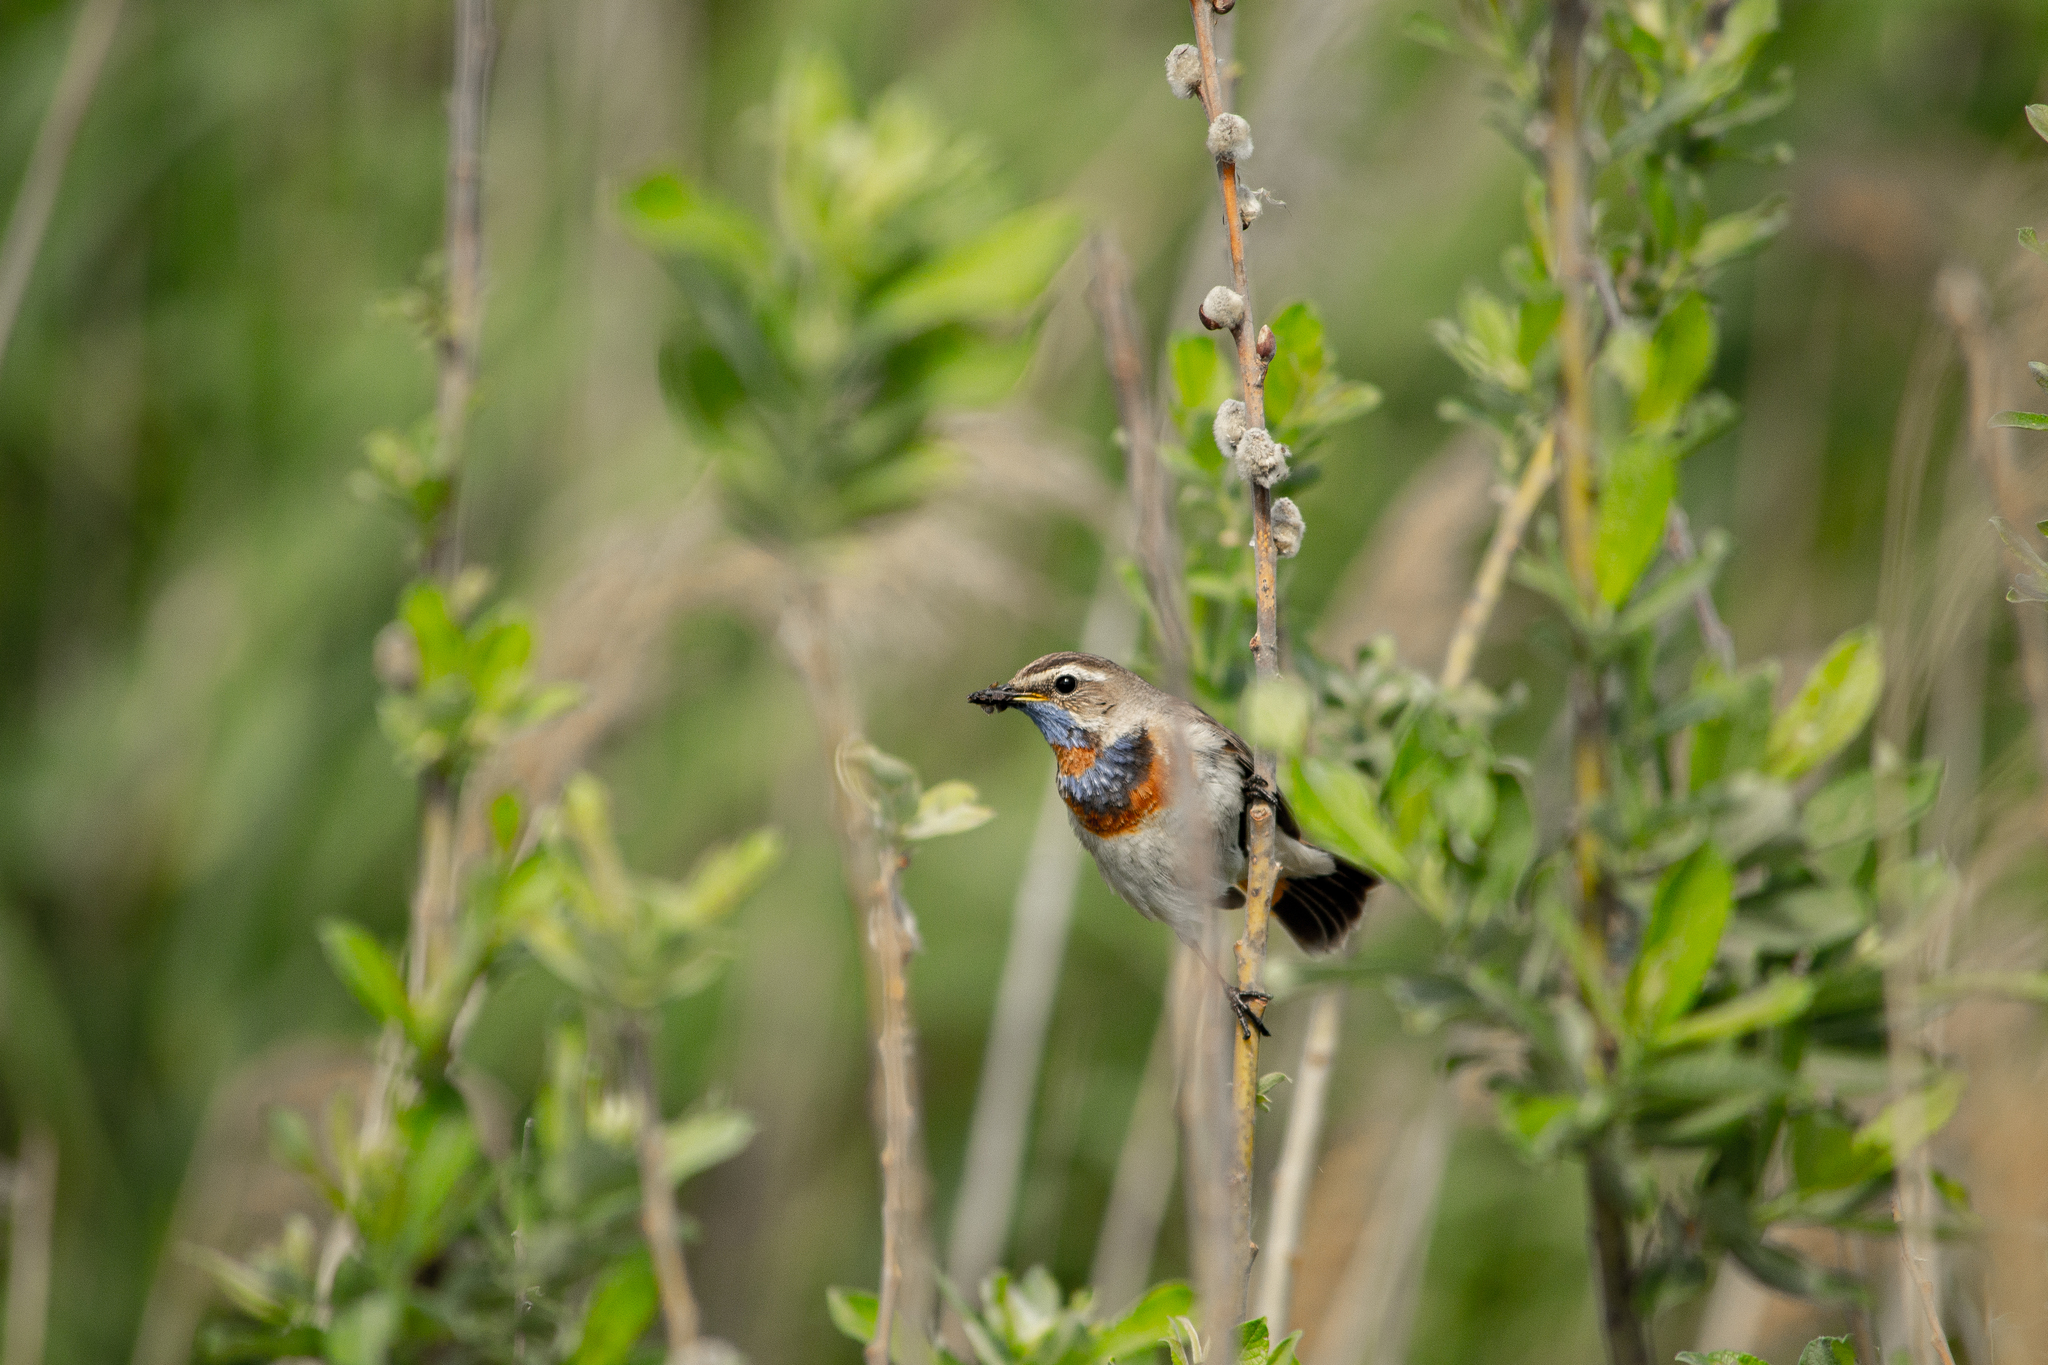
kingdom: Animalia
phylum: Chordata
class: Aves
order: Passeriformes
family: Muscicapidae
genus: Luscinia
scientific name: Luscinia svecica
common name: Bluethroat
